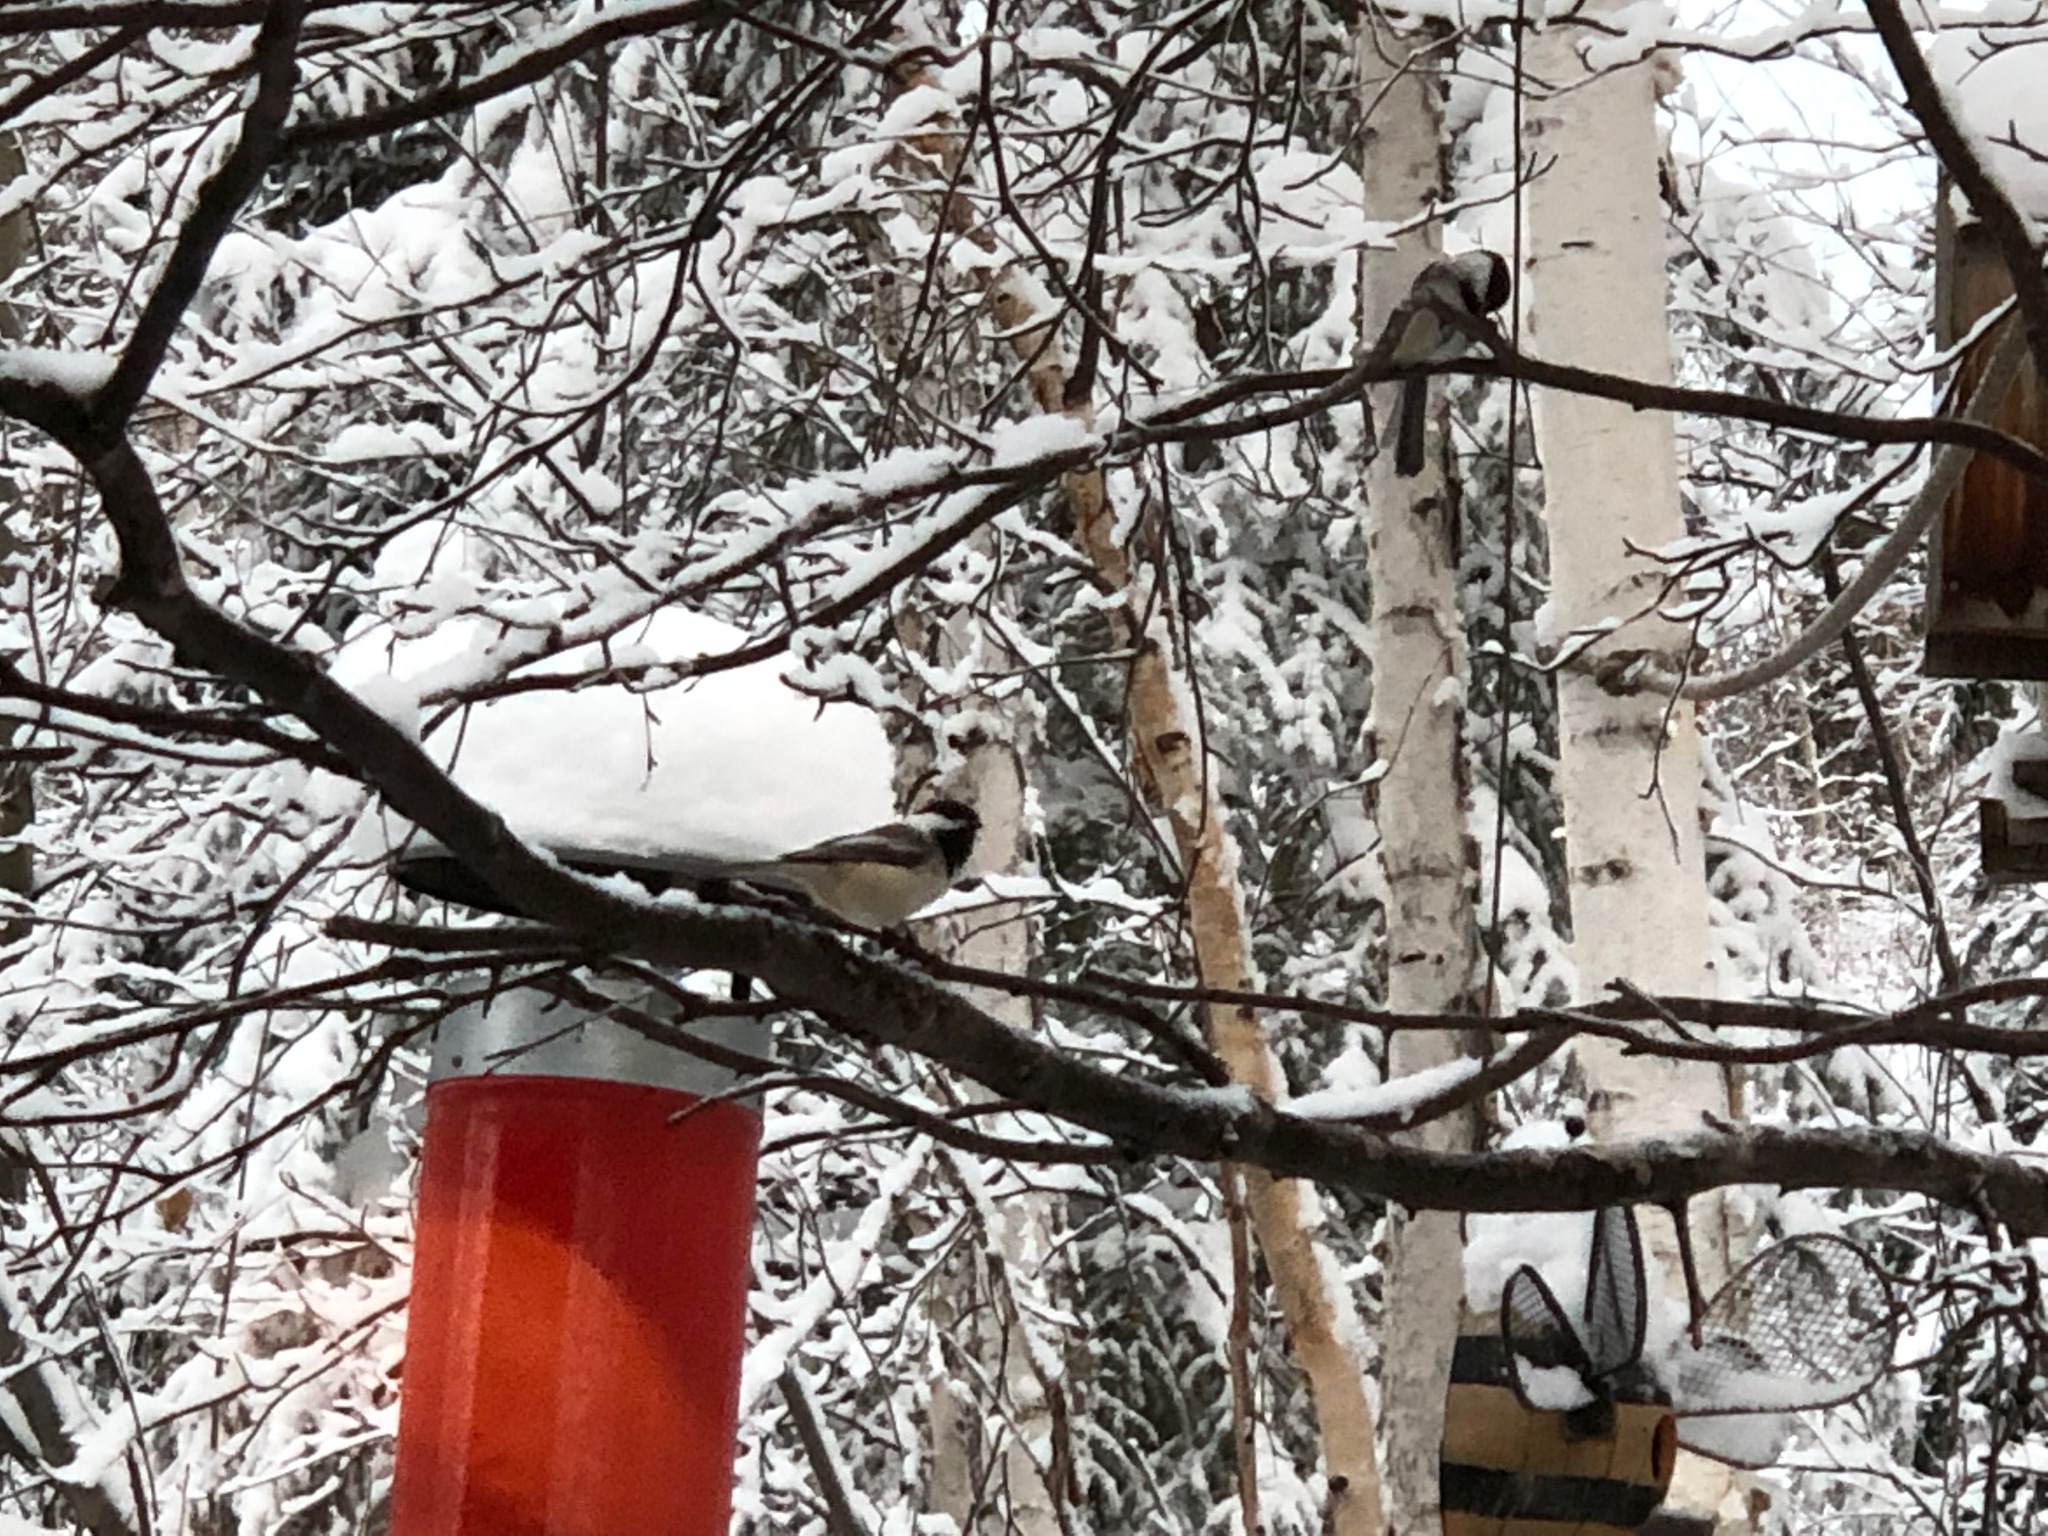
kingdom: Animalia
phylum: Chordata
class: Aves
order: Passeriformes
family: Paridae
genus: Poecile
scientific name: Poecile atricapillus
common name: Black-capped chickadee
